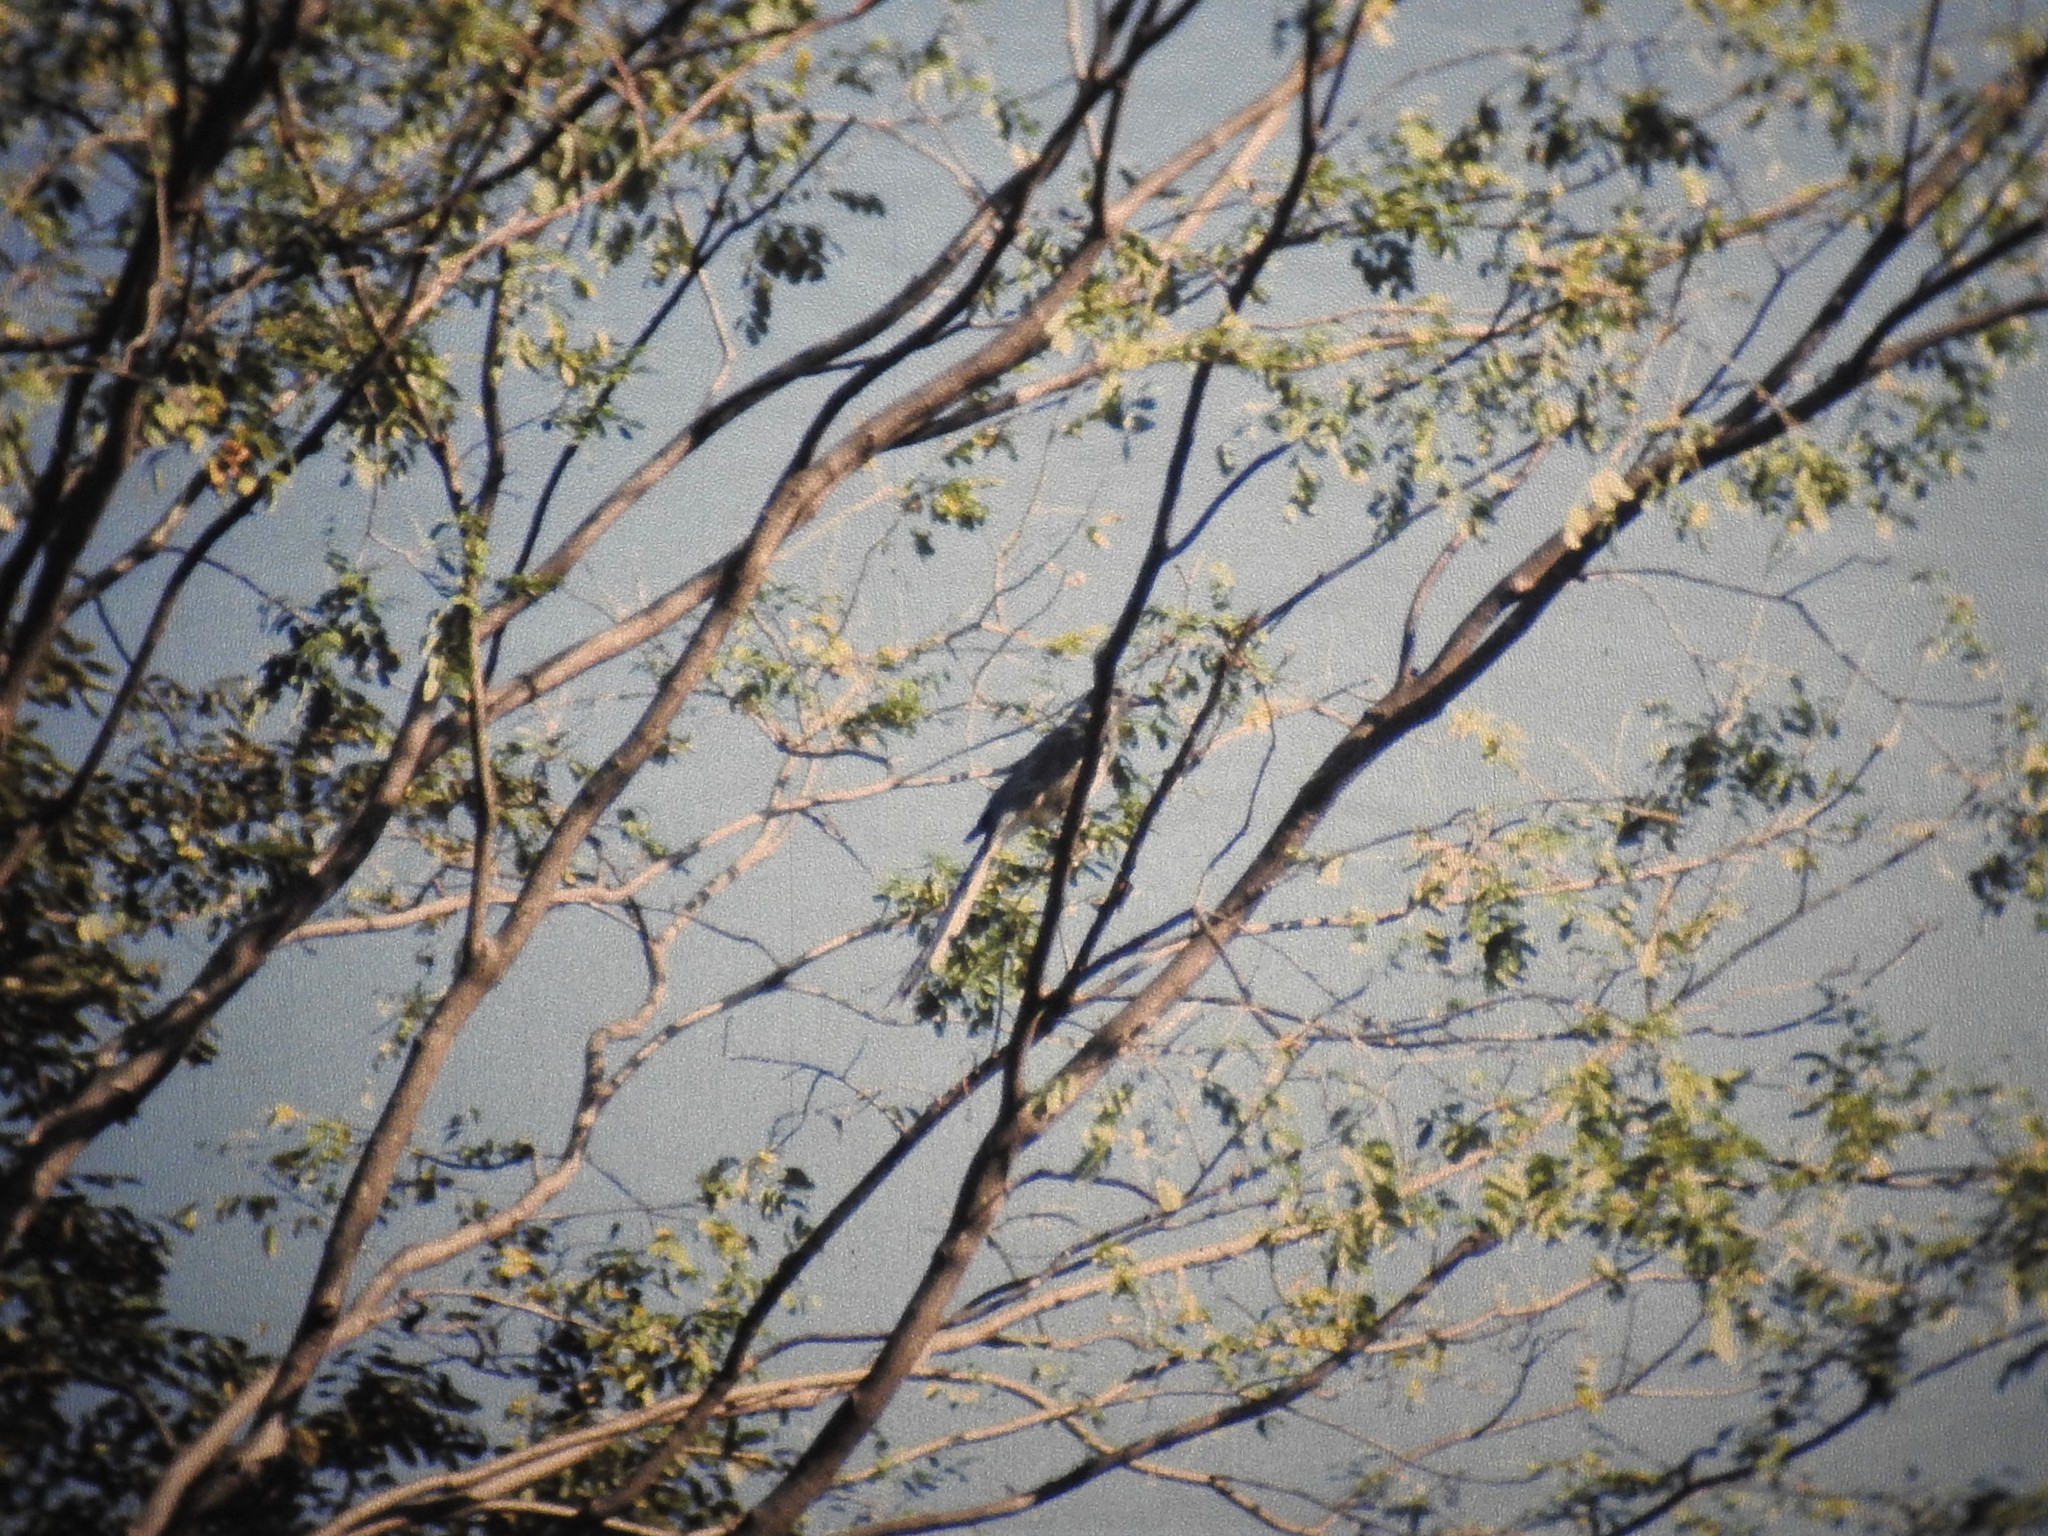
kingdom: Animalia
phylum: Chordata
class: Aves
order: Passeriformes
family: Corvidae
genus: Calocitta
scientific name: Calocitta formosa
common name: White-throated magpie-jay
